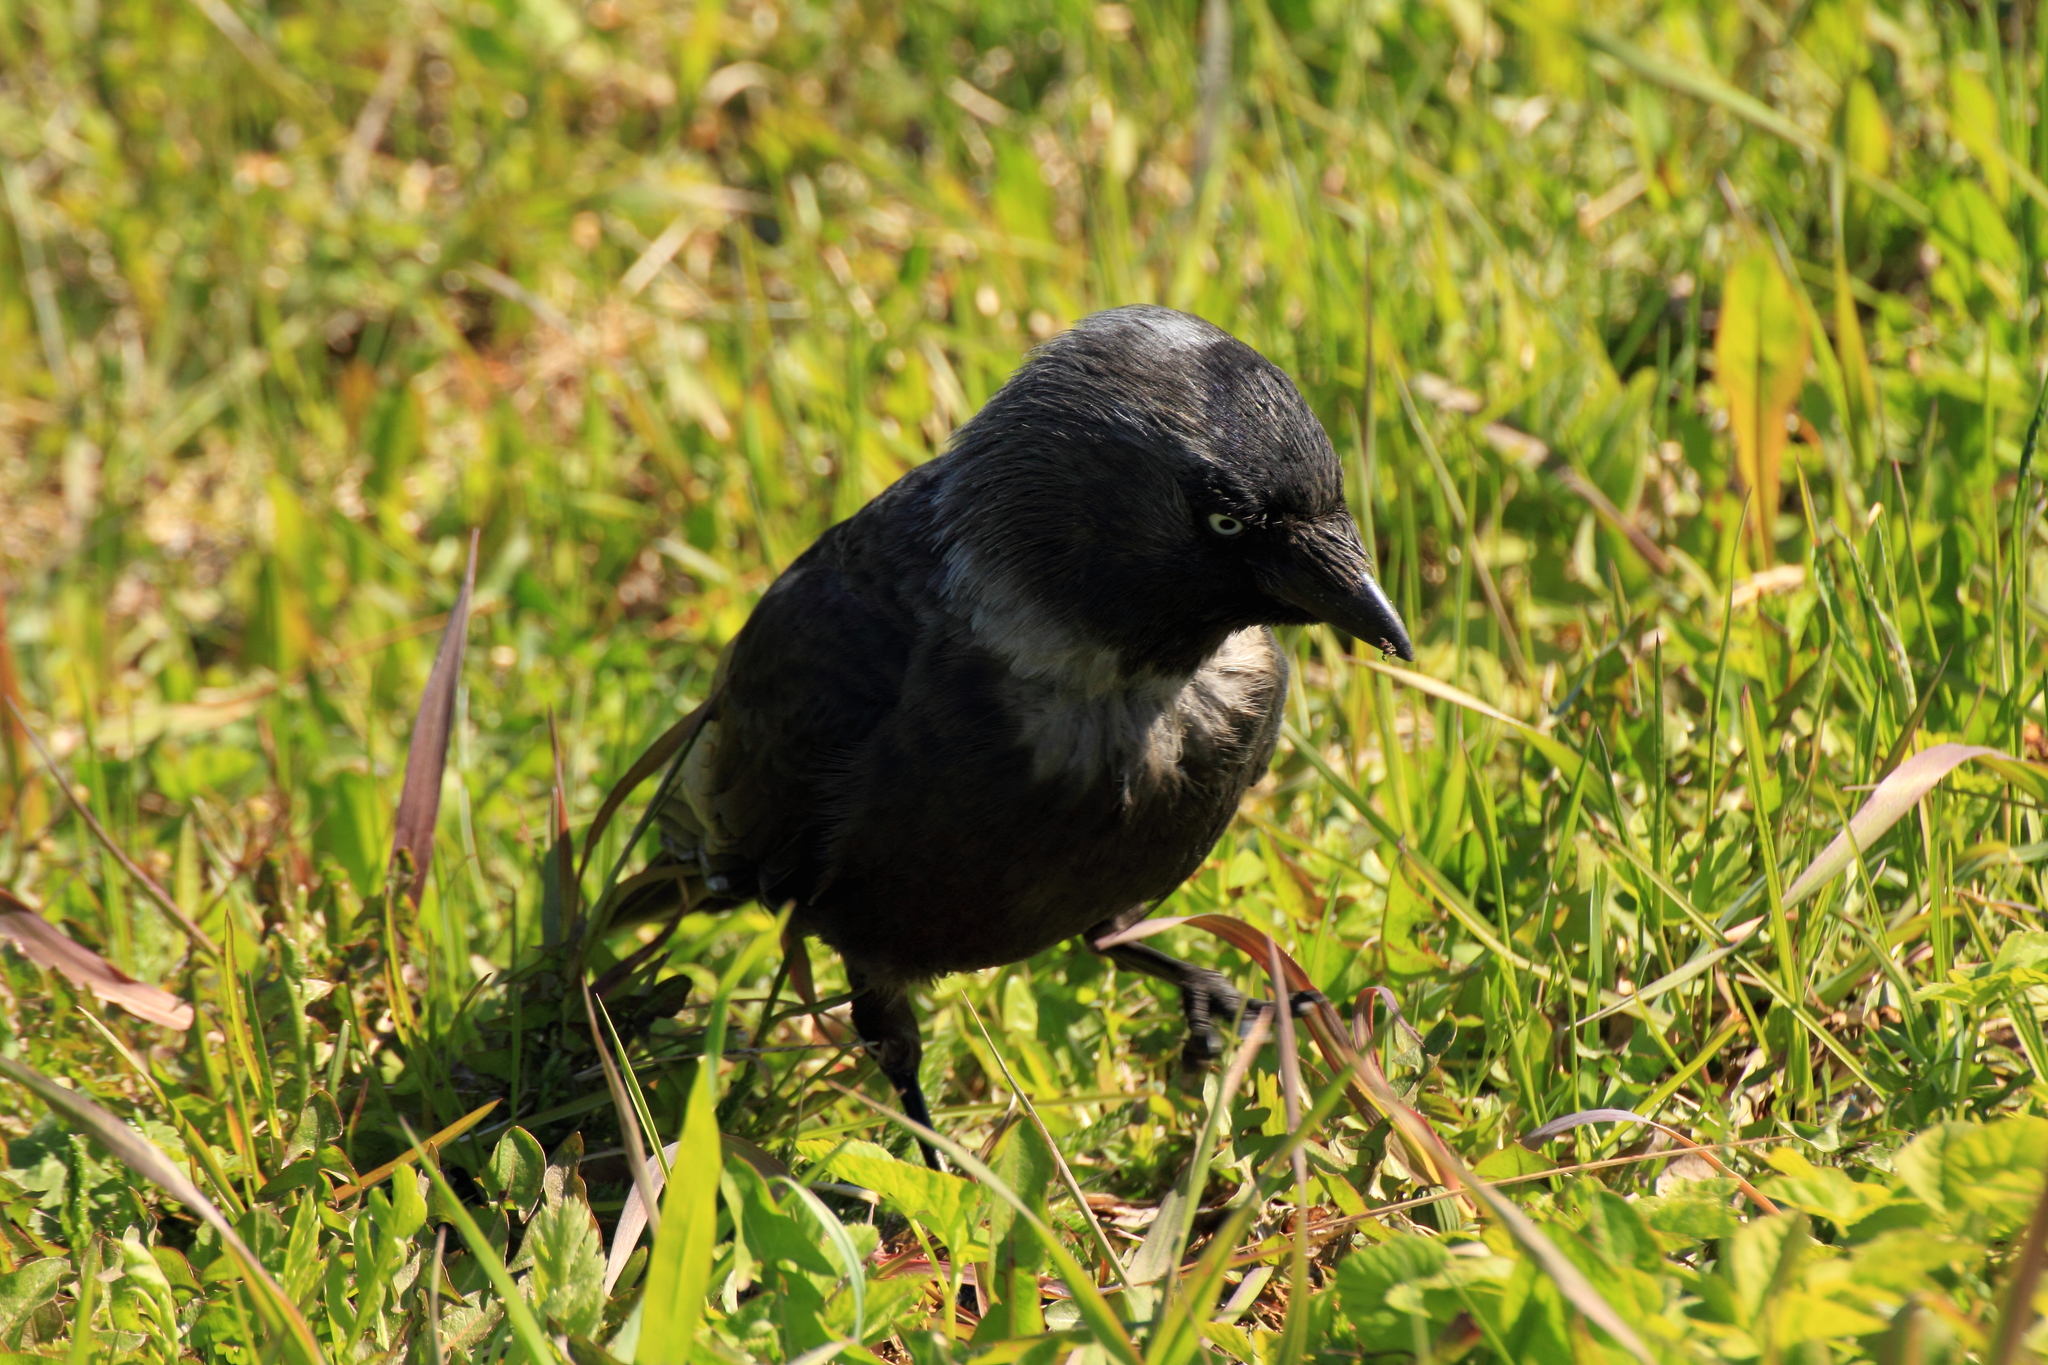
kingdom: Animalia
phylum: Chordata
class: Aves
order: Passeriformes
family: Corvidae
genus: Coloeus
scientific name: Coloeus monedula
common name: Western jackdaw
